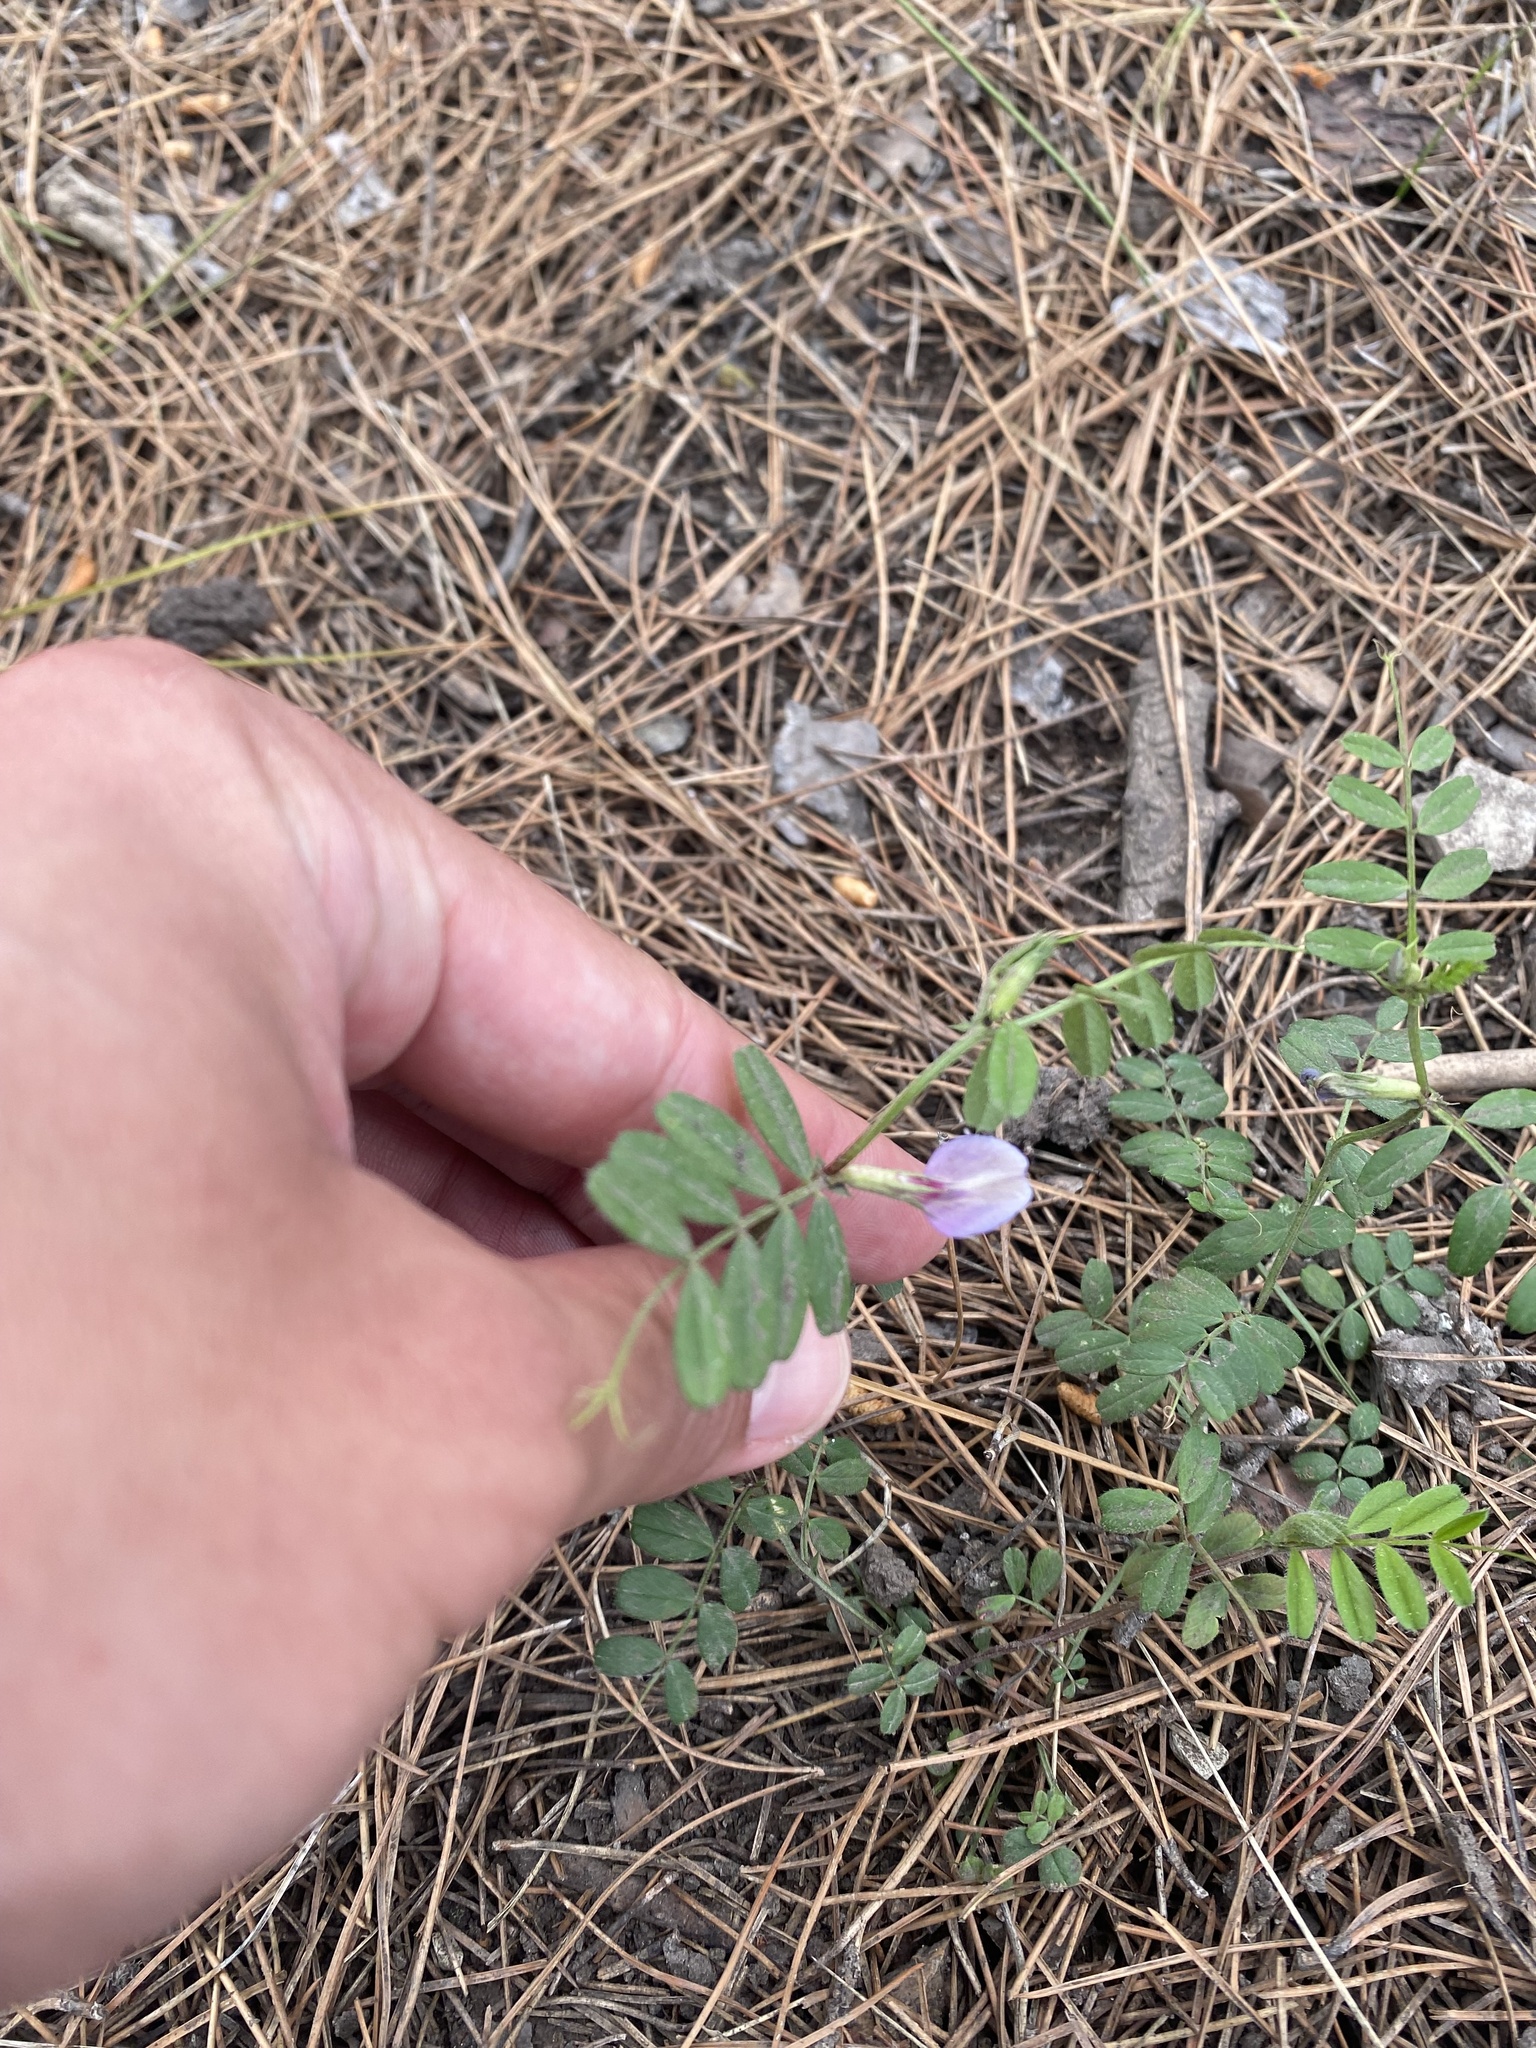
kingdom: Plantae
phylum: Tracheophyta
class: Magnoliopsida
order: Fabales
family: Fabaceae
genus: Vicia
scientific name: Vicia sativa
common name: Garden vetch
